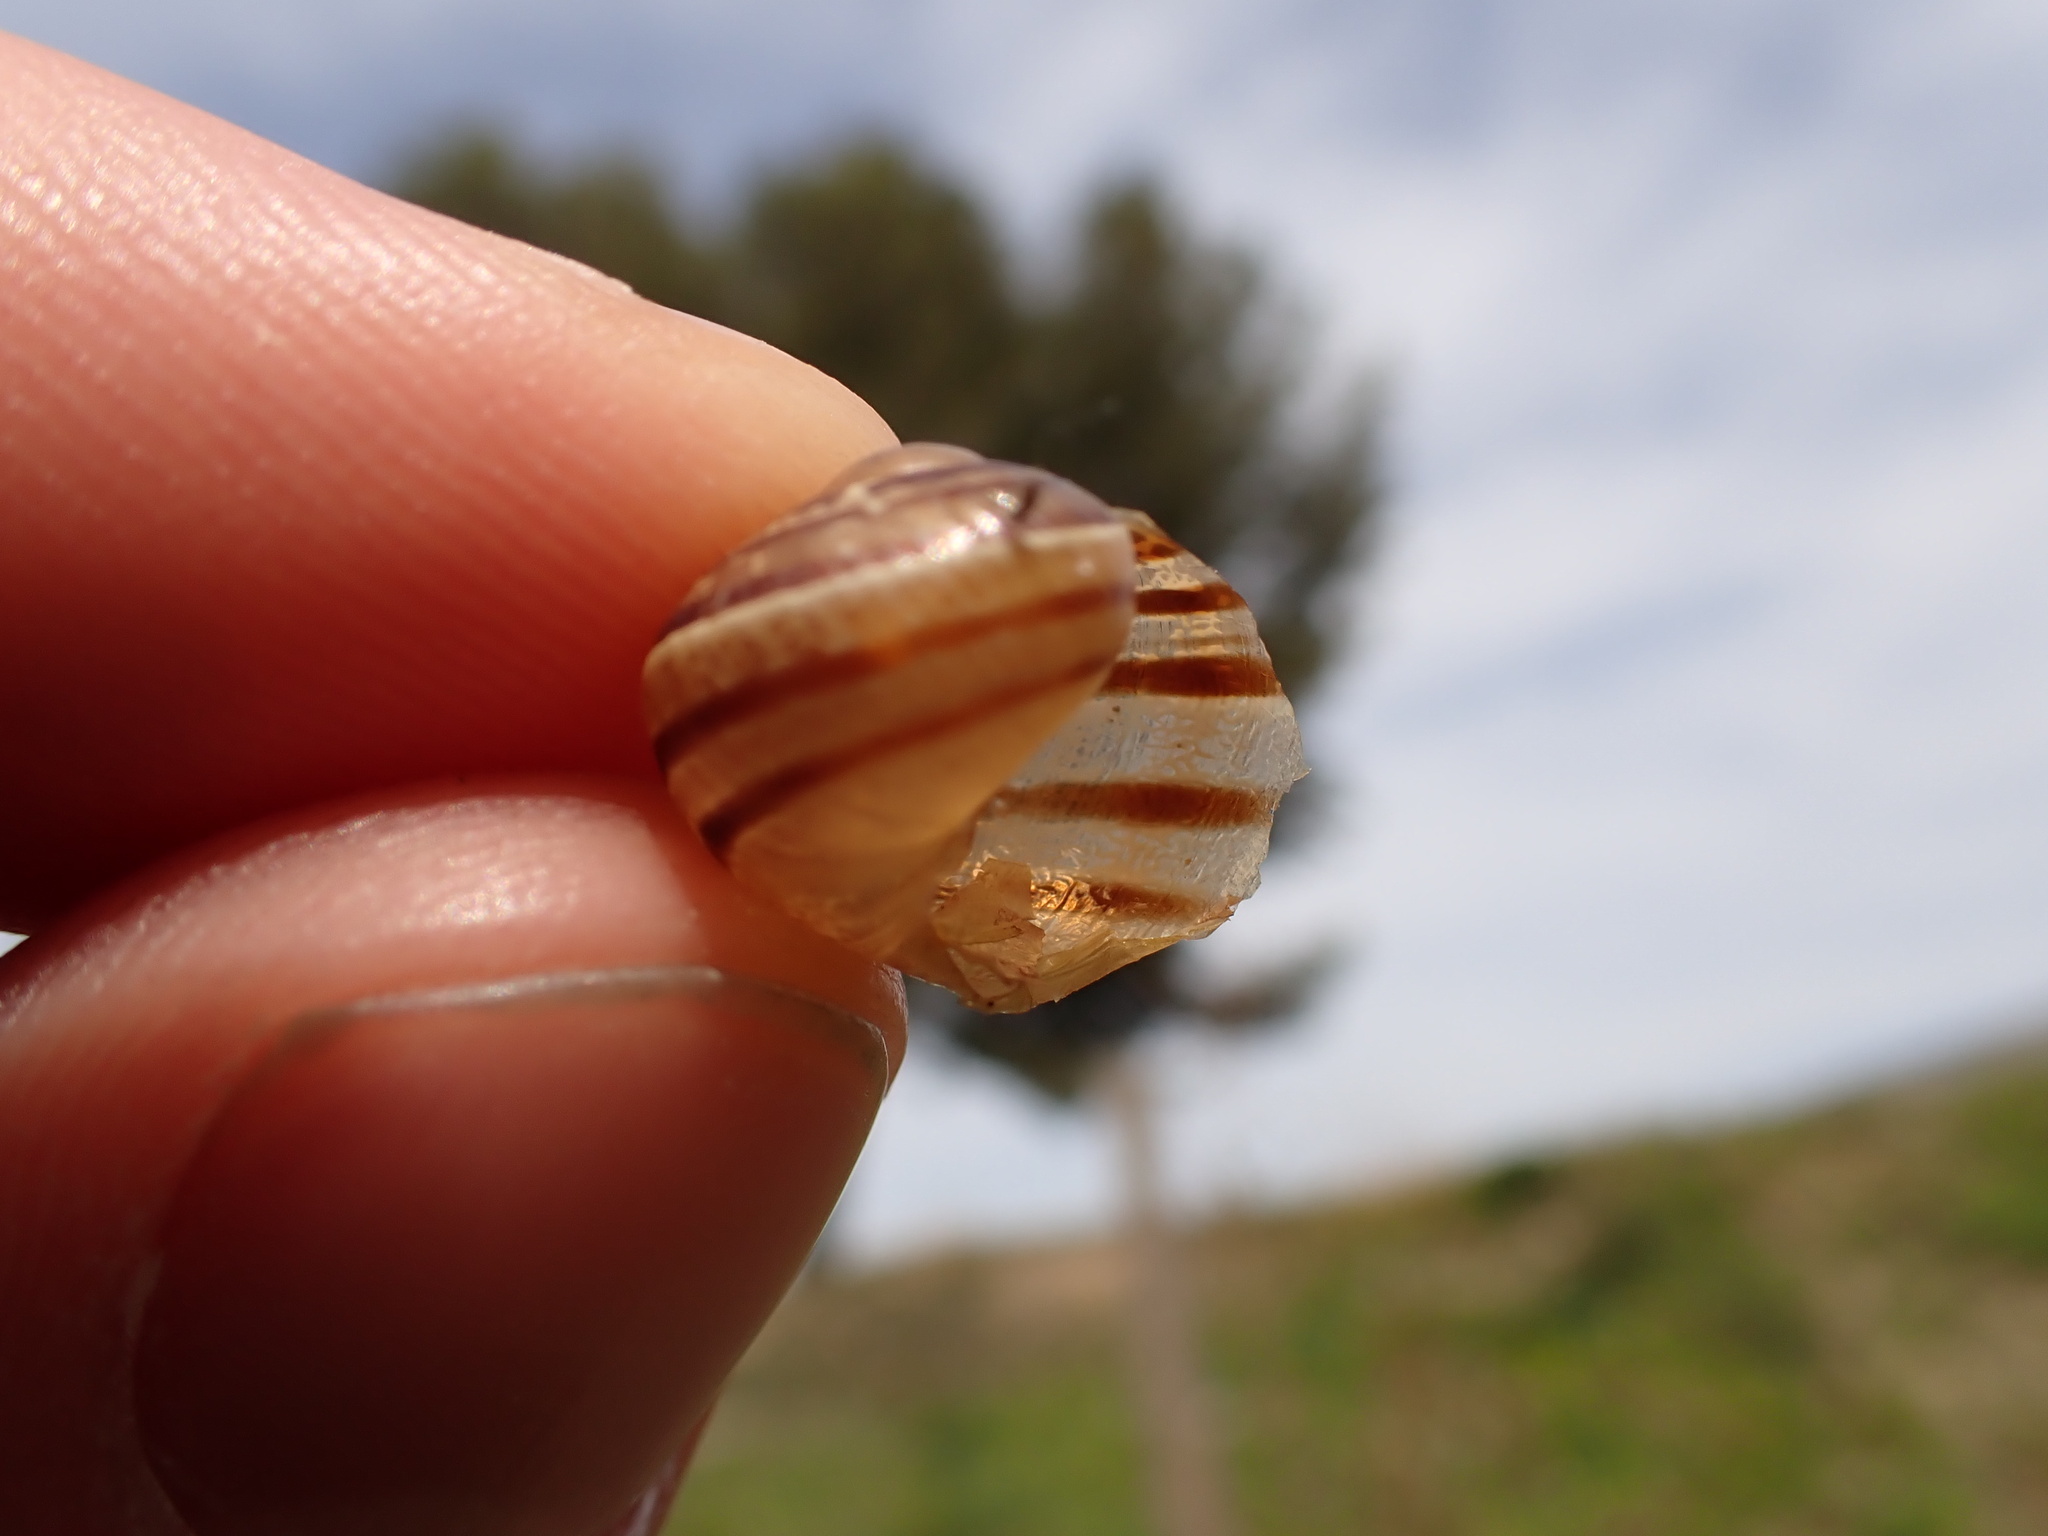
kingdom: Animalia
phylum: Mollusca
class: Gastropoda
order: Stylommatophora
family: Helicidae
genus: Cornu
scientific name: Cornu aspersum
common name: Brown garden snail
